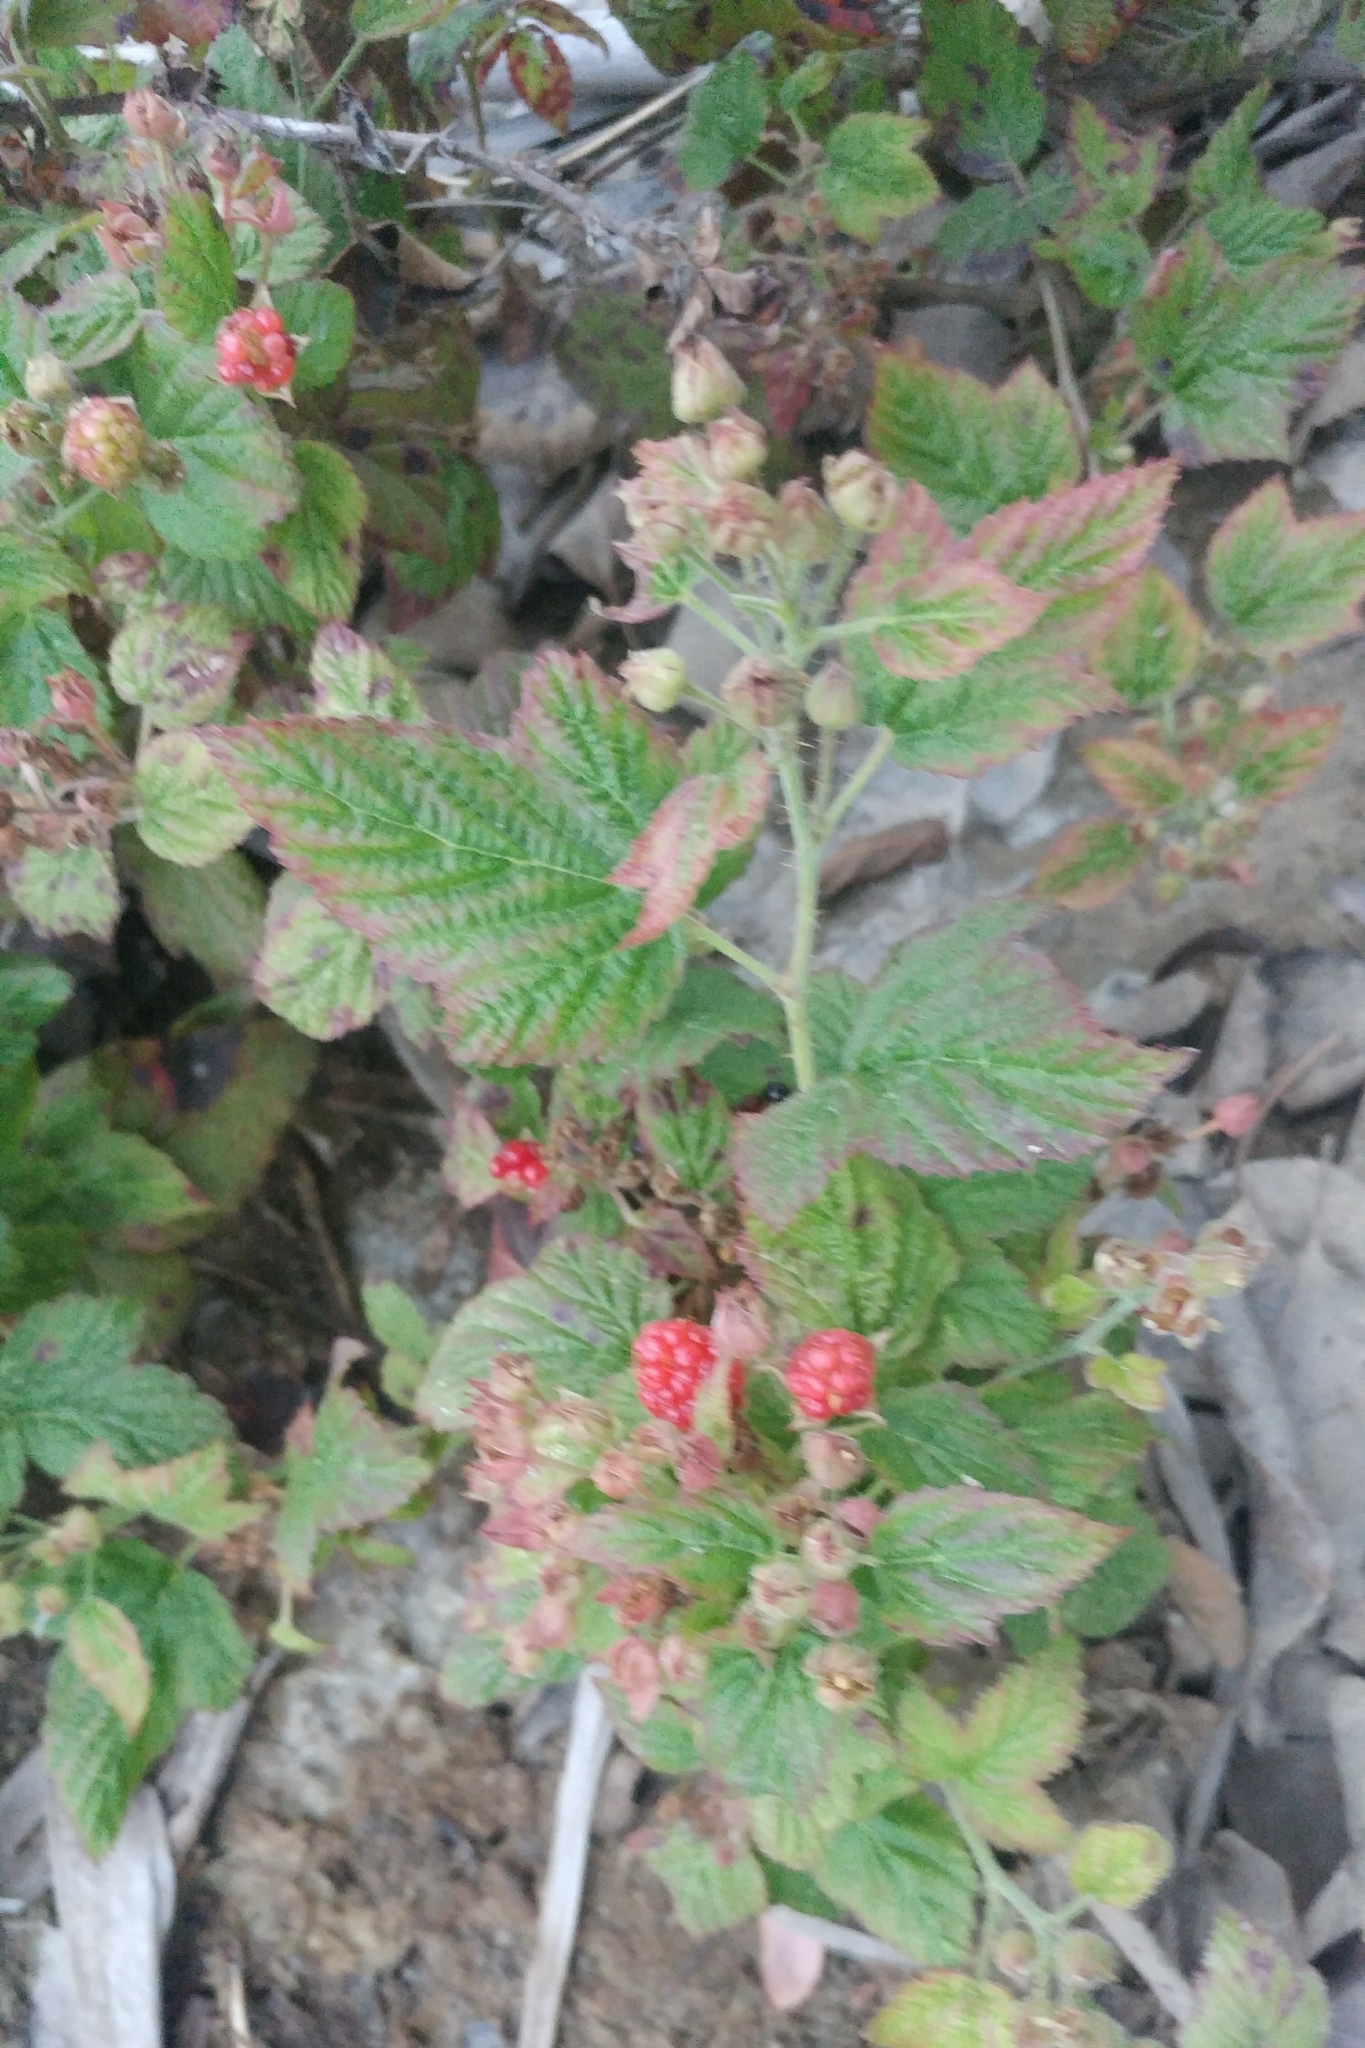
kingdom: Plantae
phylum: Tracheophyta
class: Magnoliopsida
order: Rosales
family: Rosaceae
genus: Rubus
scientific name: Rubus ursinus
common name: Pacific blackberry
